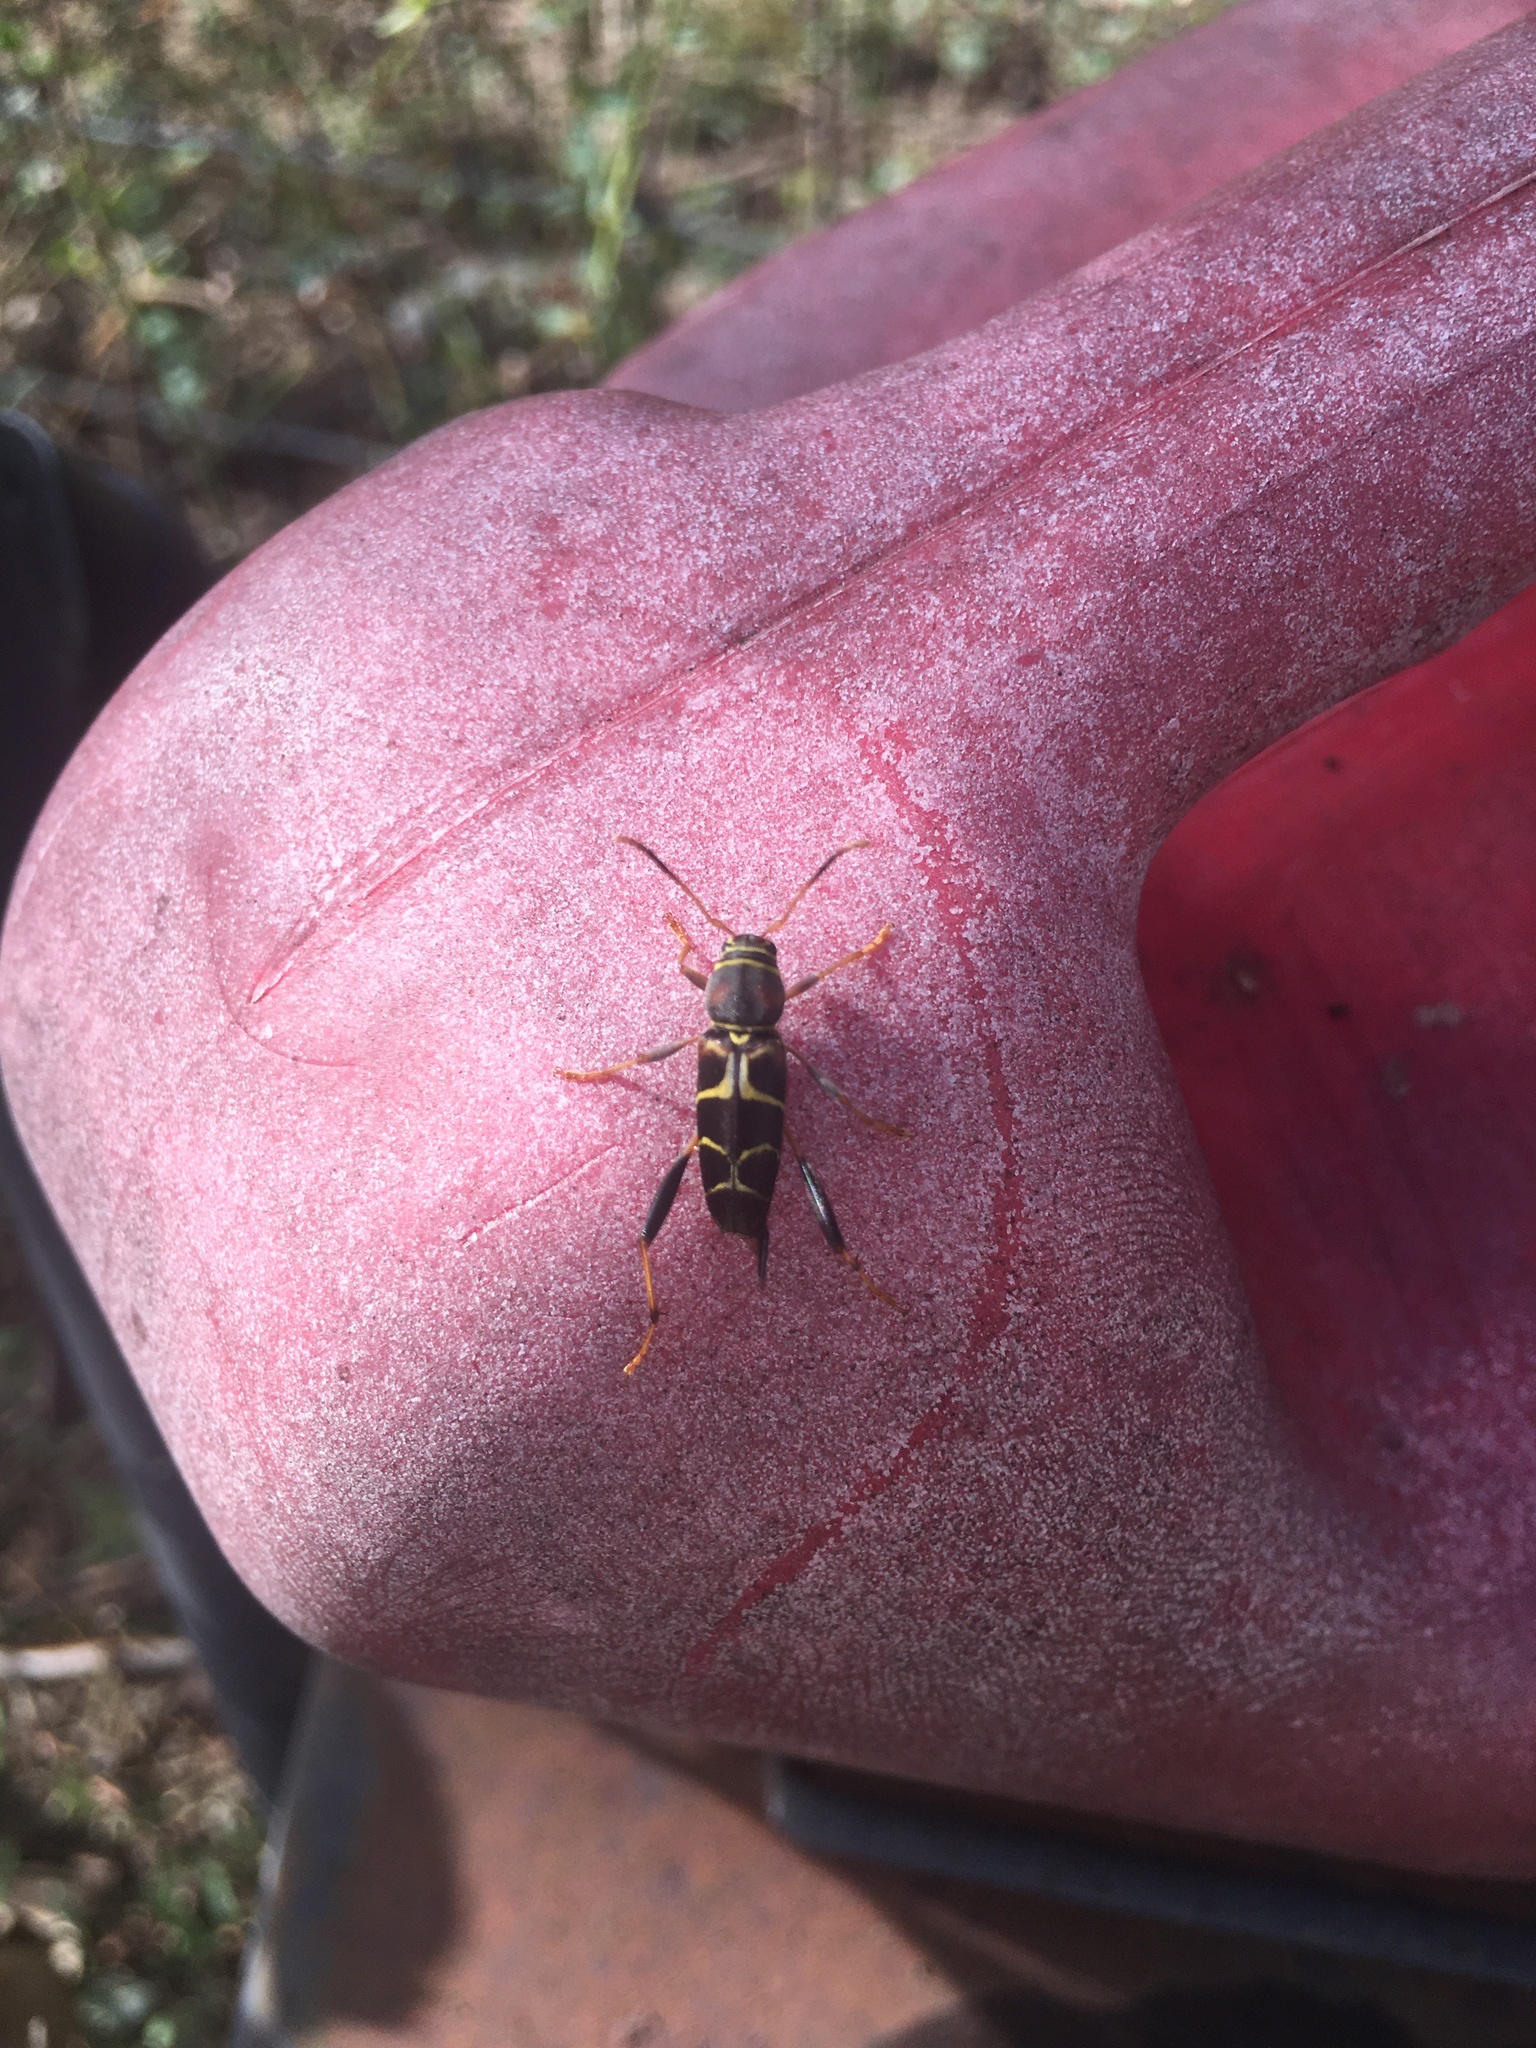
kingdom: Animalia
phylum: Arthropoda
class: Insecta
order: Coleoptera
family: Cerambycidae
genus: Neoclytus
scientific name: Neoclytus mucronatus
